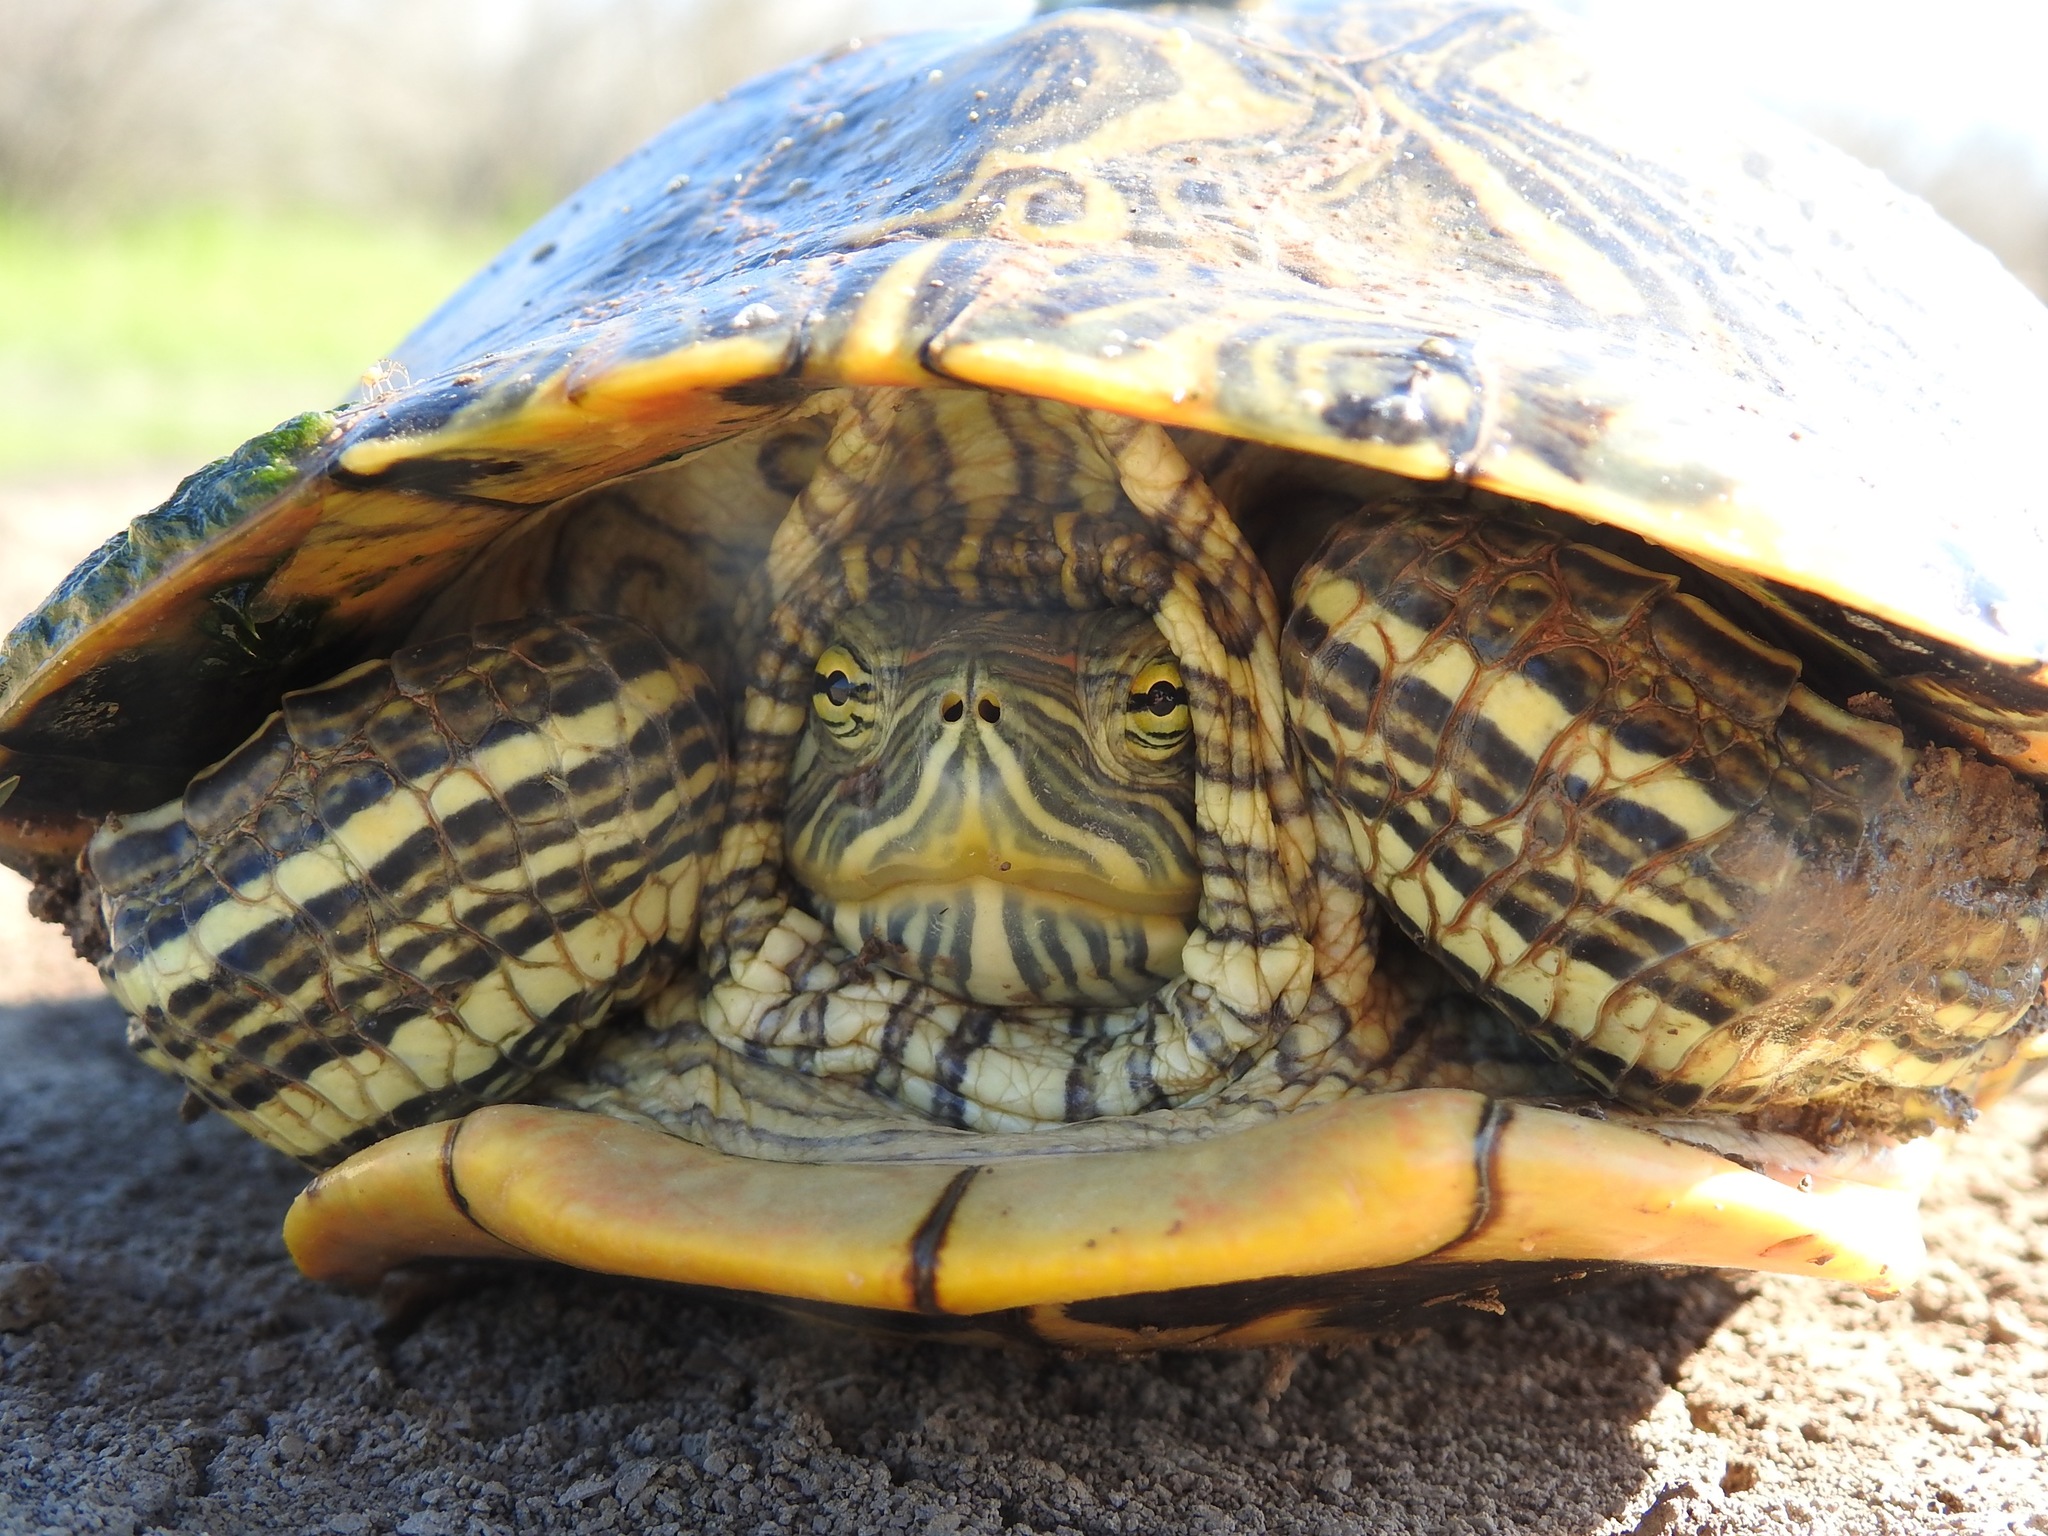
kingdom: Animalia
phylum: Chordata
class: Testudines
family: Emydidae
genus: Trachemys
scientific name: Trachemys scripta
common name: Slider
